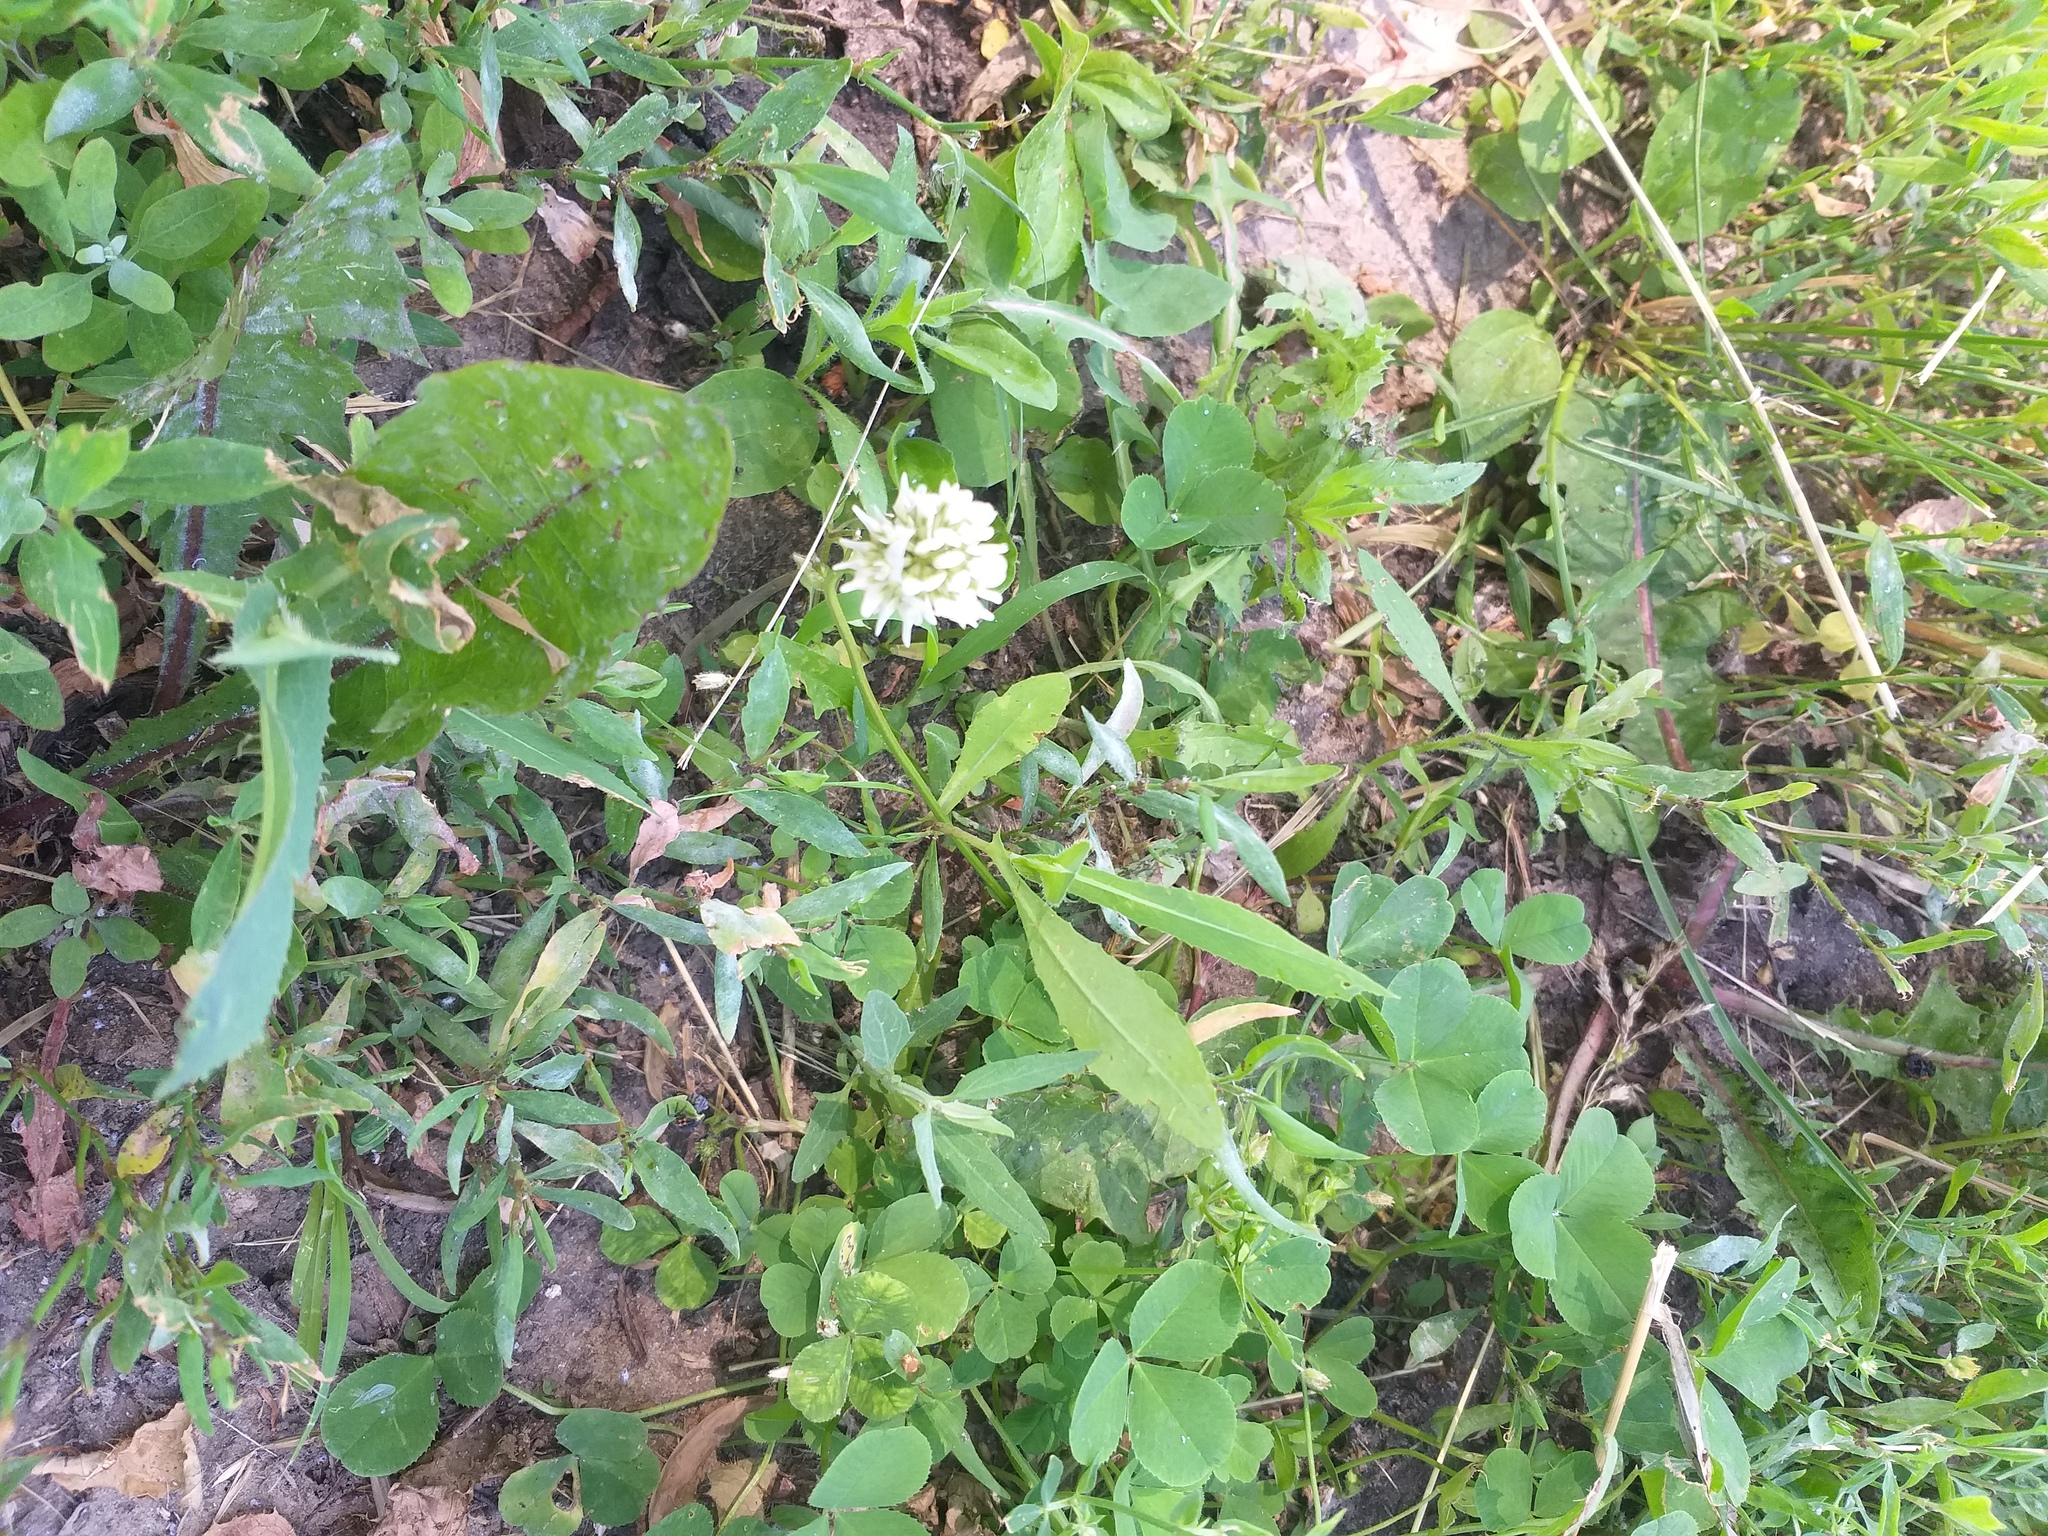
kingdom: Plantae
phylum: Tracheophyta
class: Magnoliopsida
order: Fabales
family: Fabaceae
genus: Trifolium
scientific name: Trifolium repens
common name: White clover
